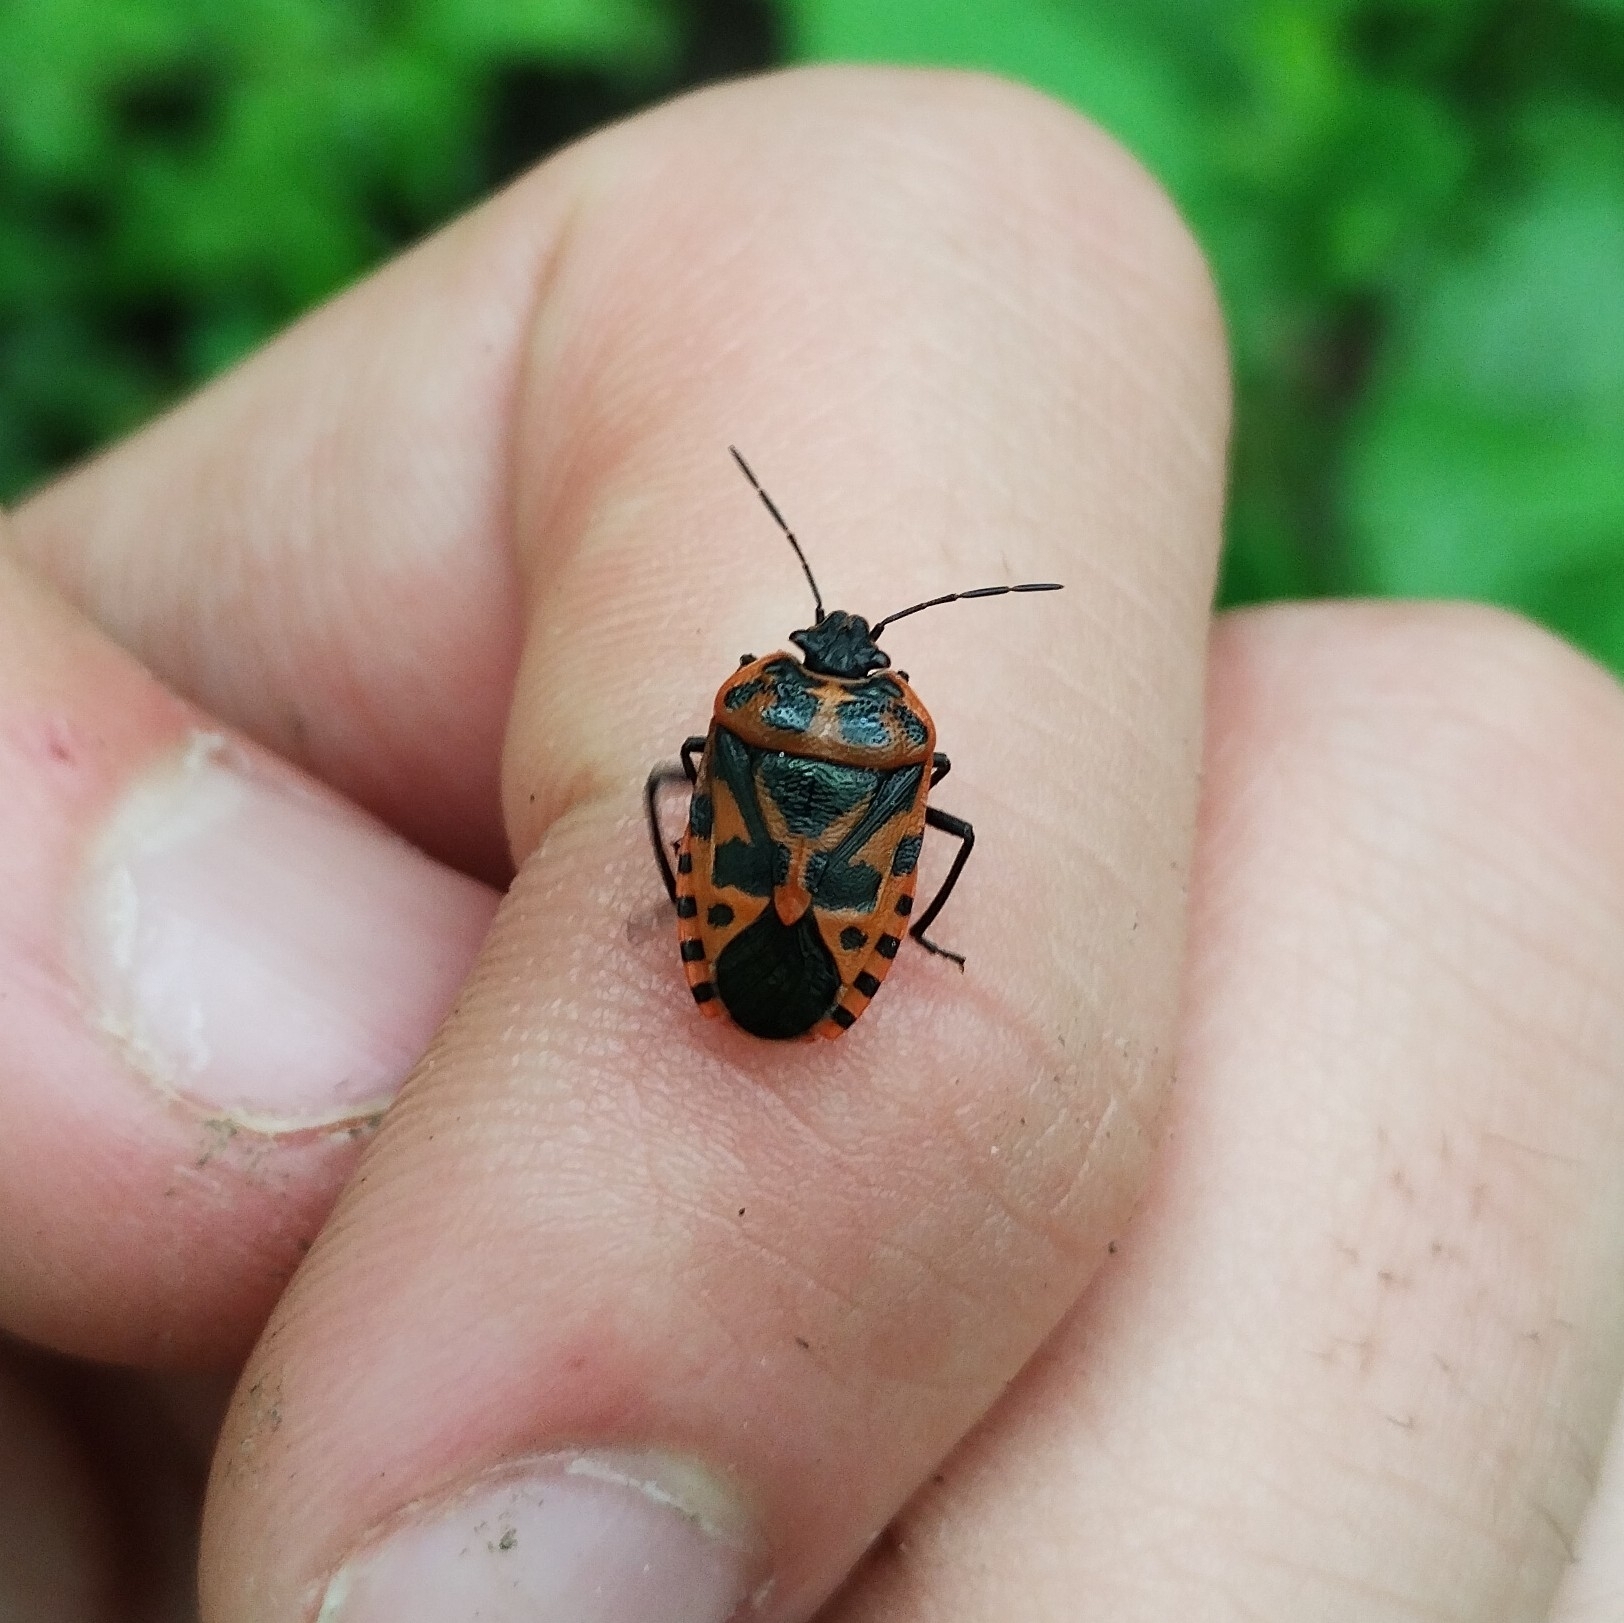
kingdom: Animalia
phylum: Arthropoda
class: Insecta
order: Hemiptera
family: Pentatomidae
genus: Eurydema
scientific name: Eurydema ventralis
